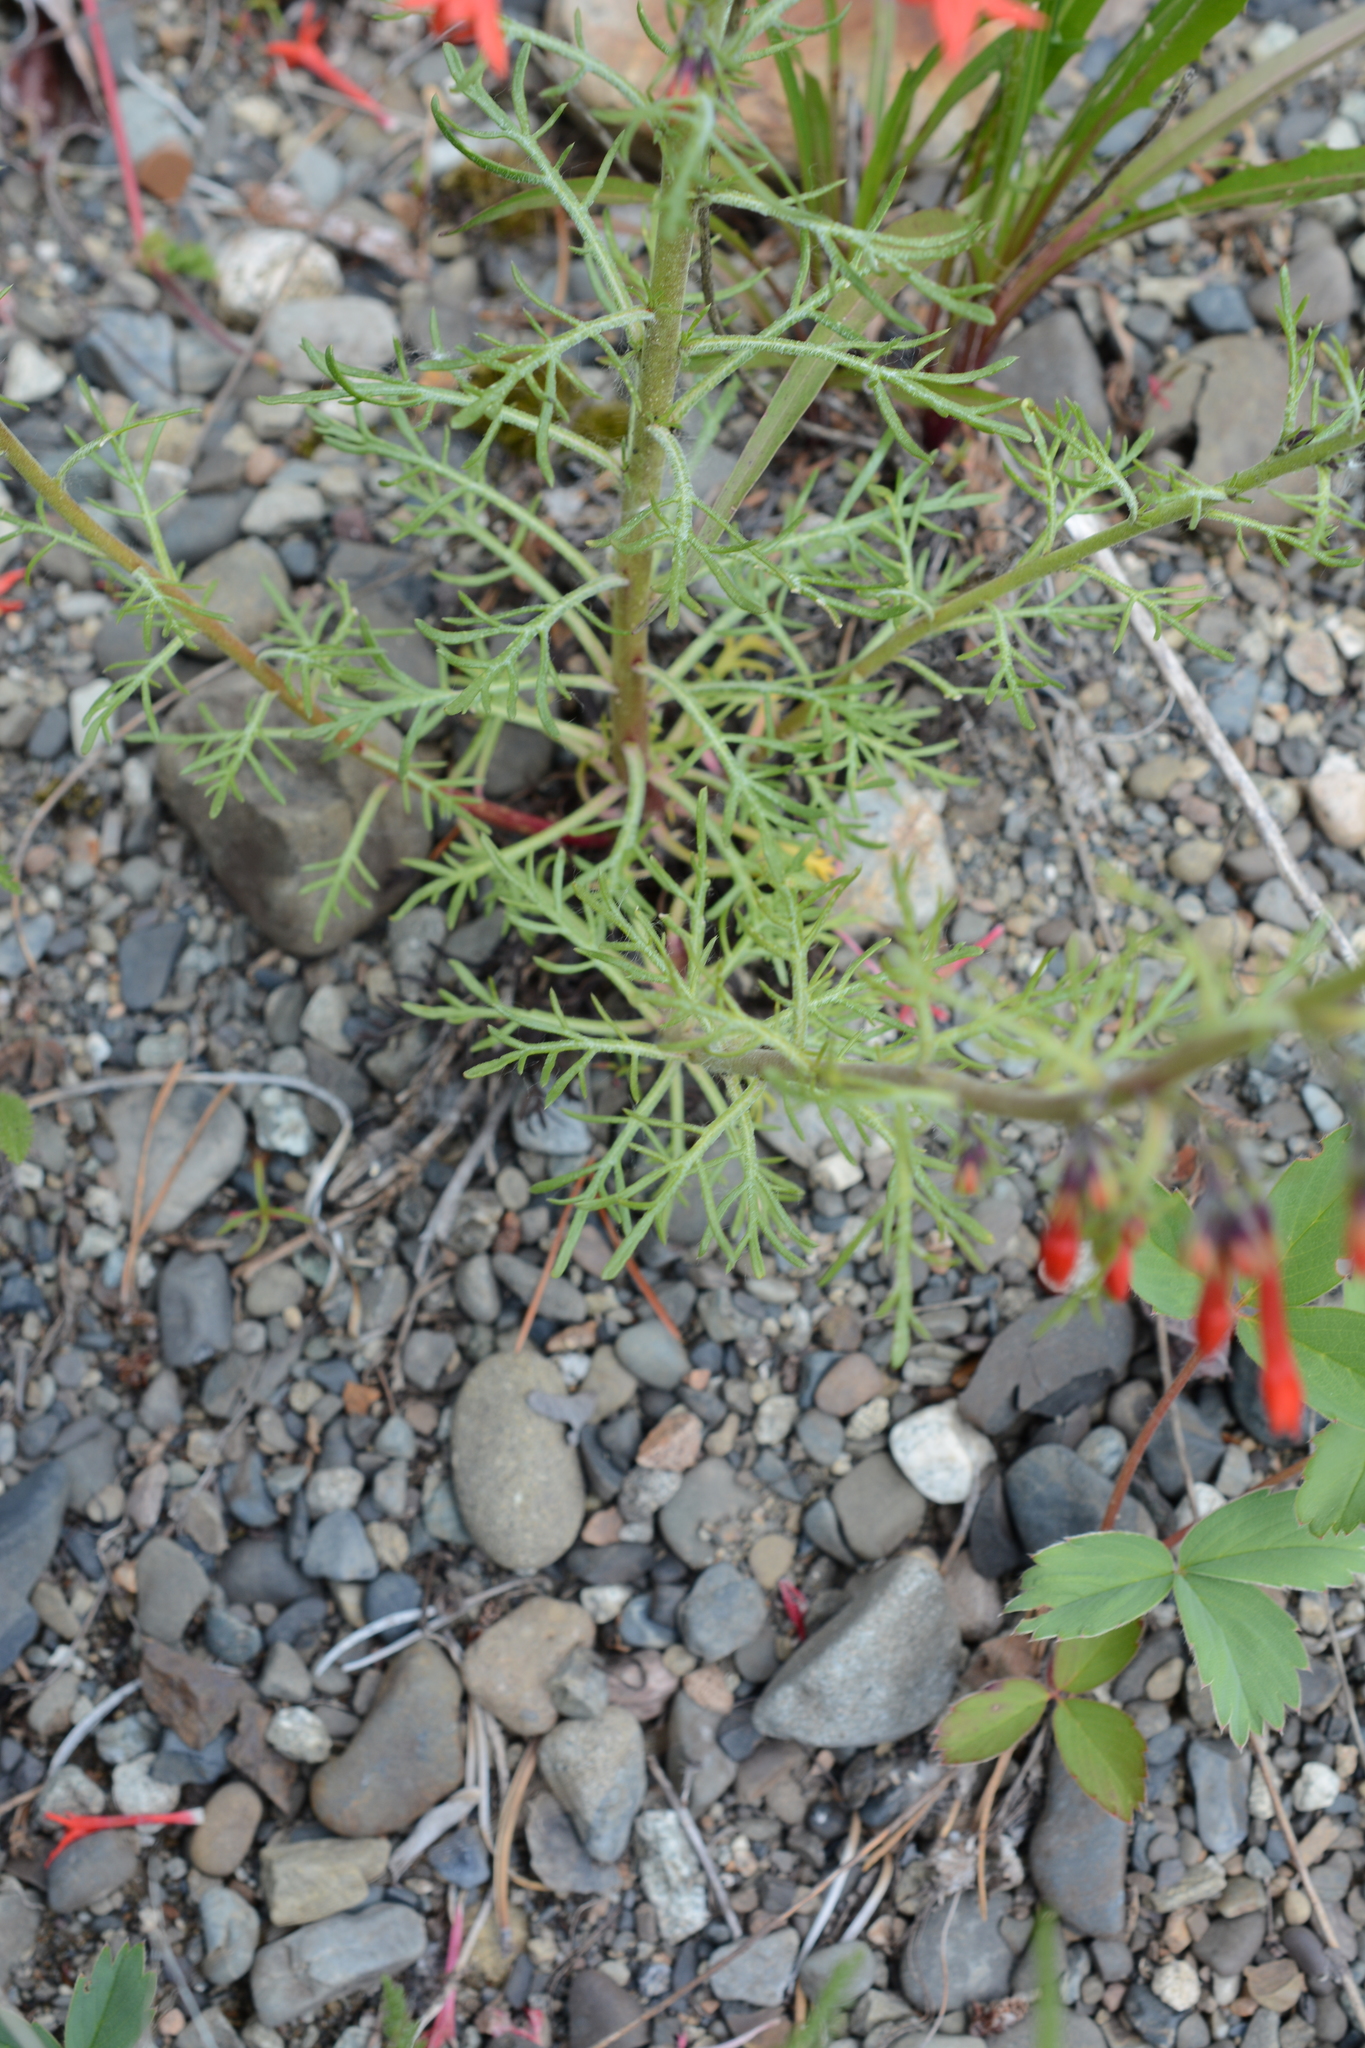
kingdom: Plantae
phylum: Tracheophyta
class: Magnoliopsida
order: Ericales
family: Polemoniaceae
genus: Ipomopsis
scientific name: Ipomopsis aggregata
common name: Scarlet gilia
